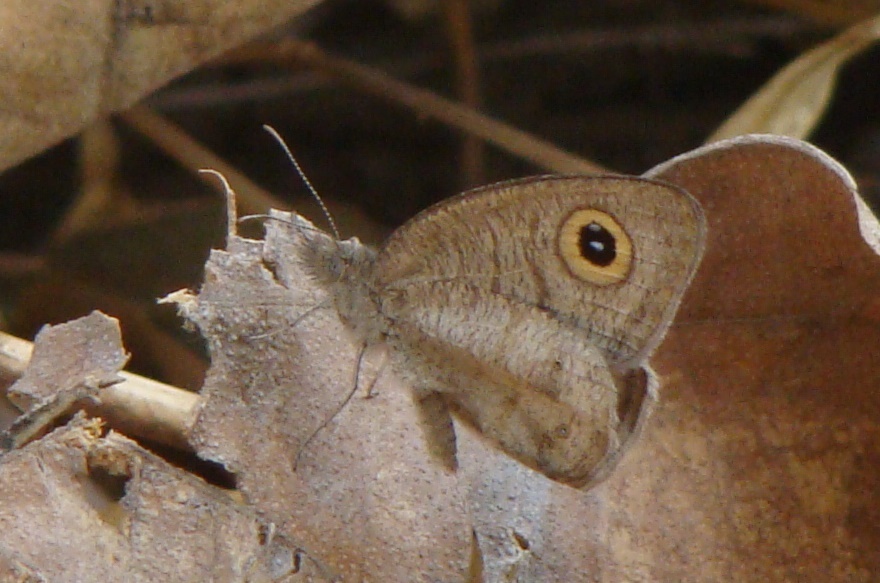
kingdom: Animalia
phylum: Arthropoda
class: Insecta
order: Lepidoptera
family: Nymphalidae
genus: Ypthima
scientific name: Ypthima asterope
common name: African ringlet
